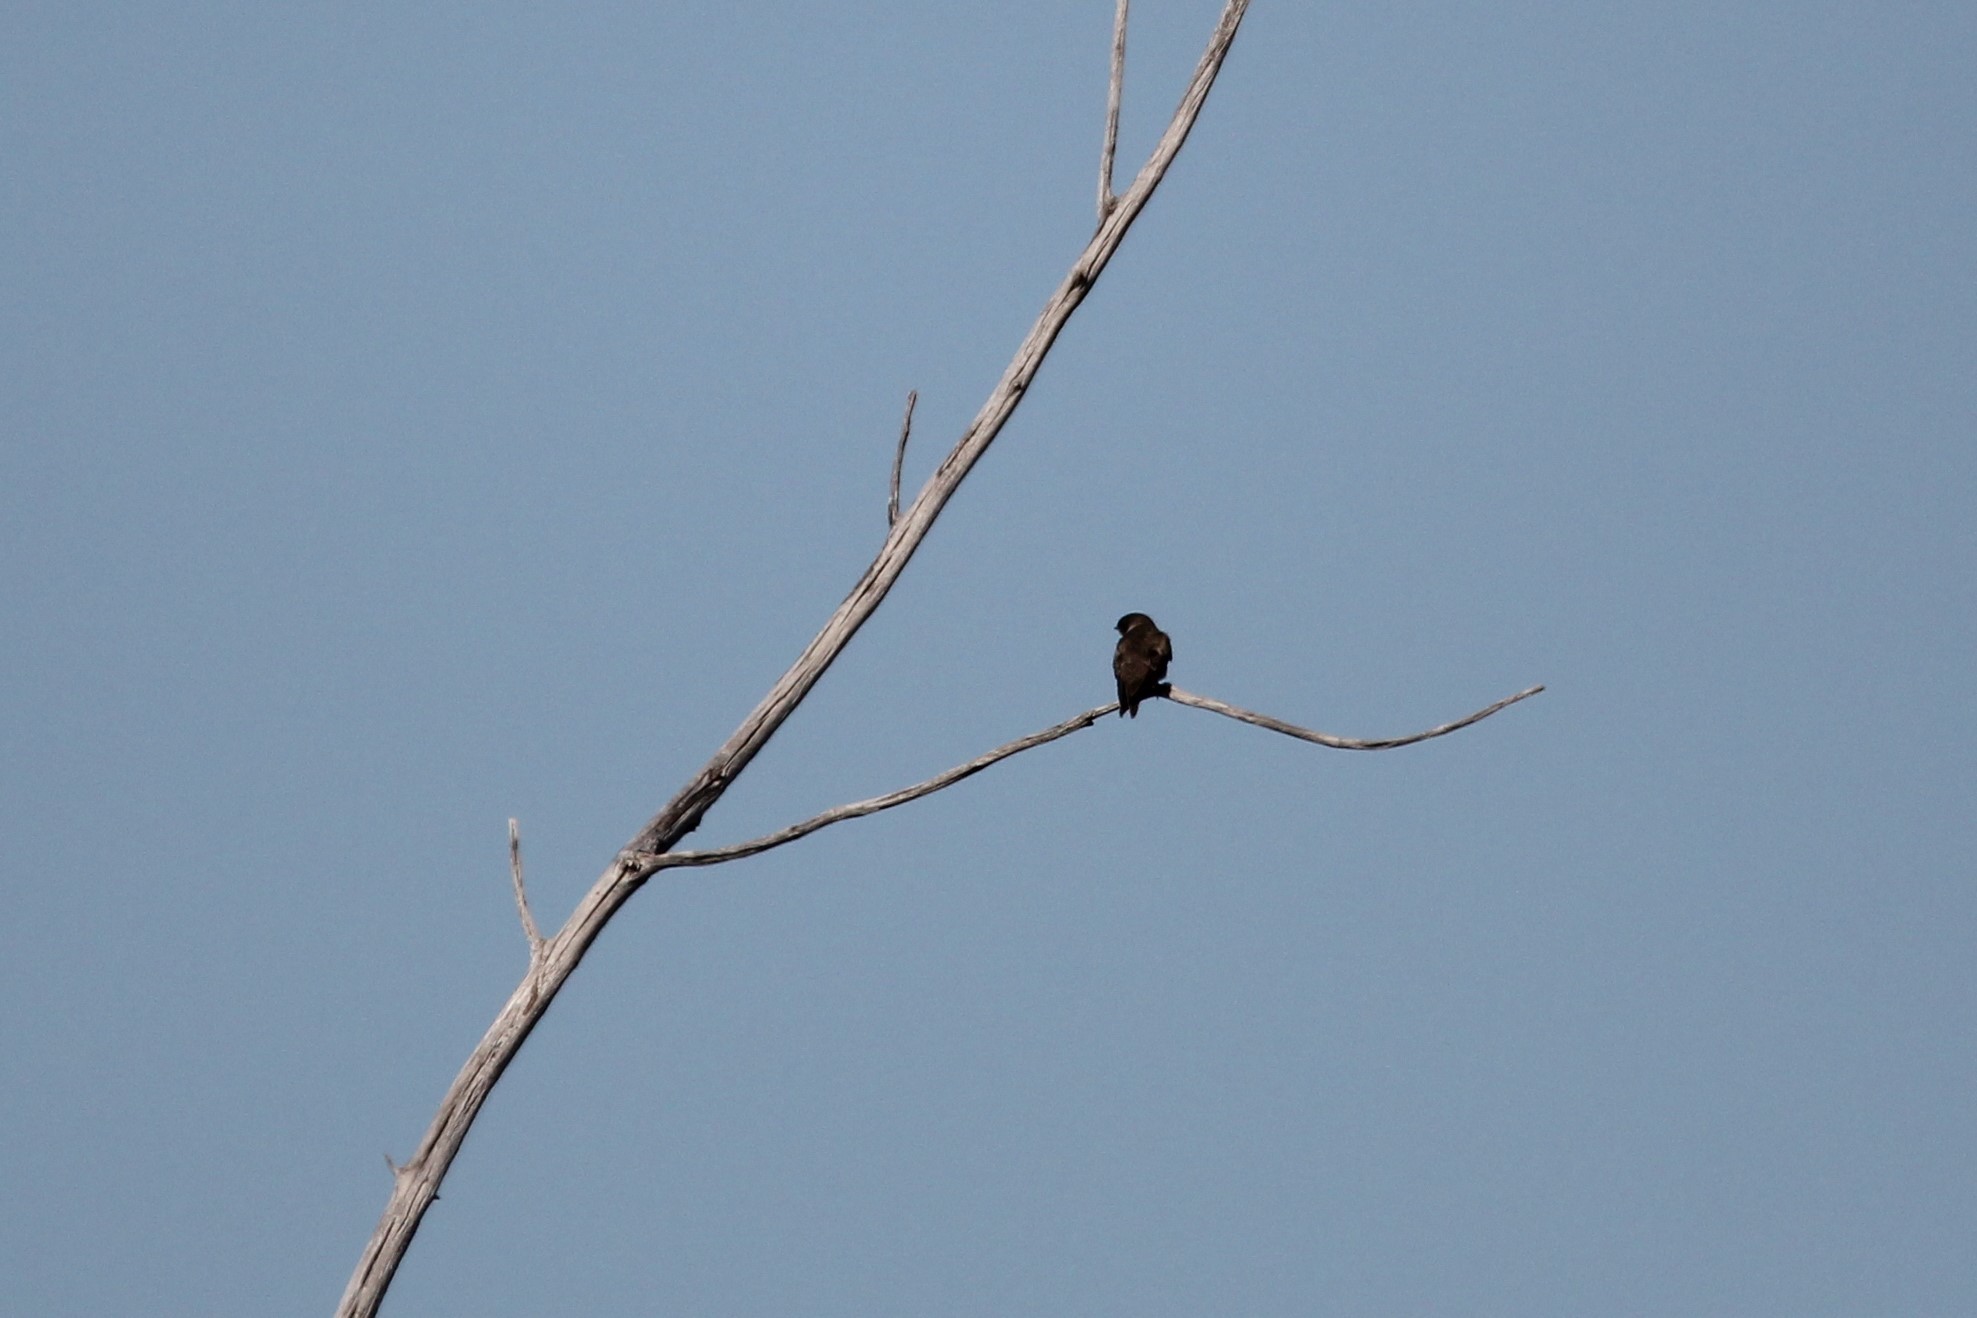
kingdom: Animalia
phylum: Chordata
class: Aves
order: Passeriformes
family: Hirundinidae
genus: Stelgidopteryx
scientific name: Stelgidopteryx serripennis
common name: Northern rough-winged swallow
